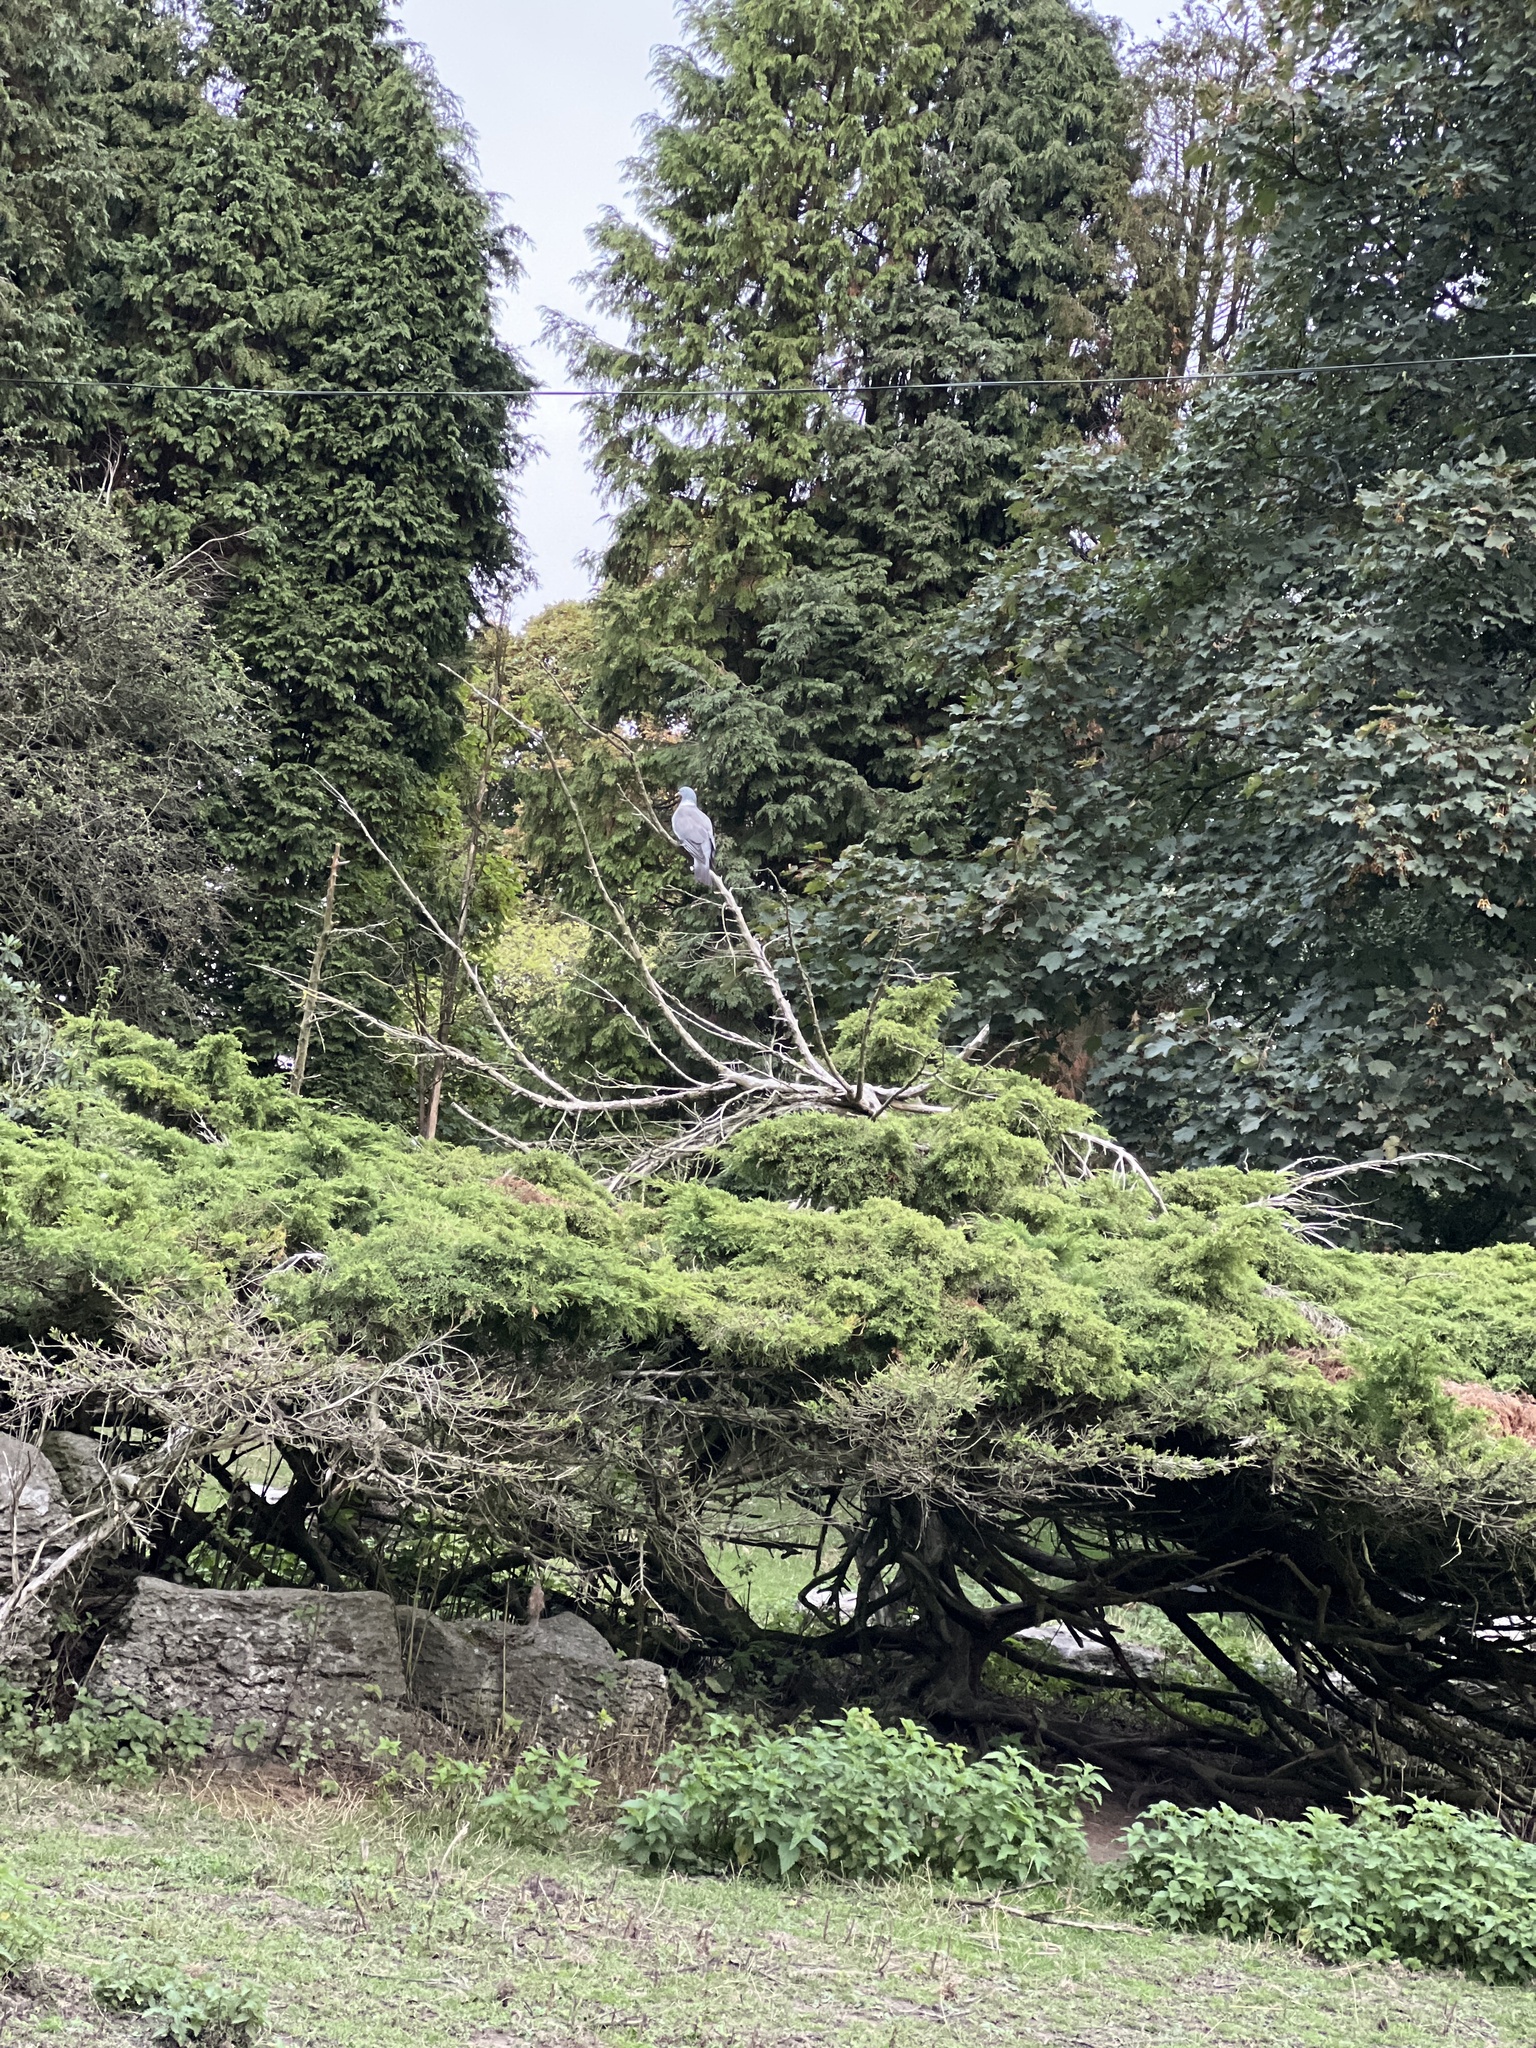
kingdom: Animalia
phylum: Chordata
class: Aves
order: Columbiformes
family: Columbidae
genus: Columba
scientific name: Columba palumbus
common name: Common wood pigeon
